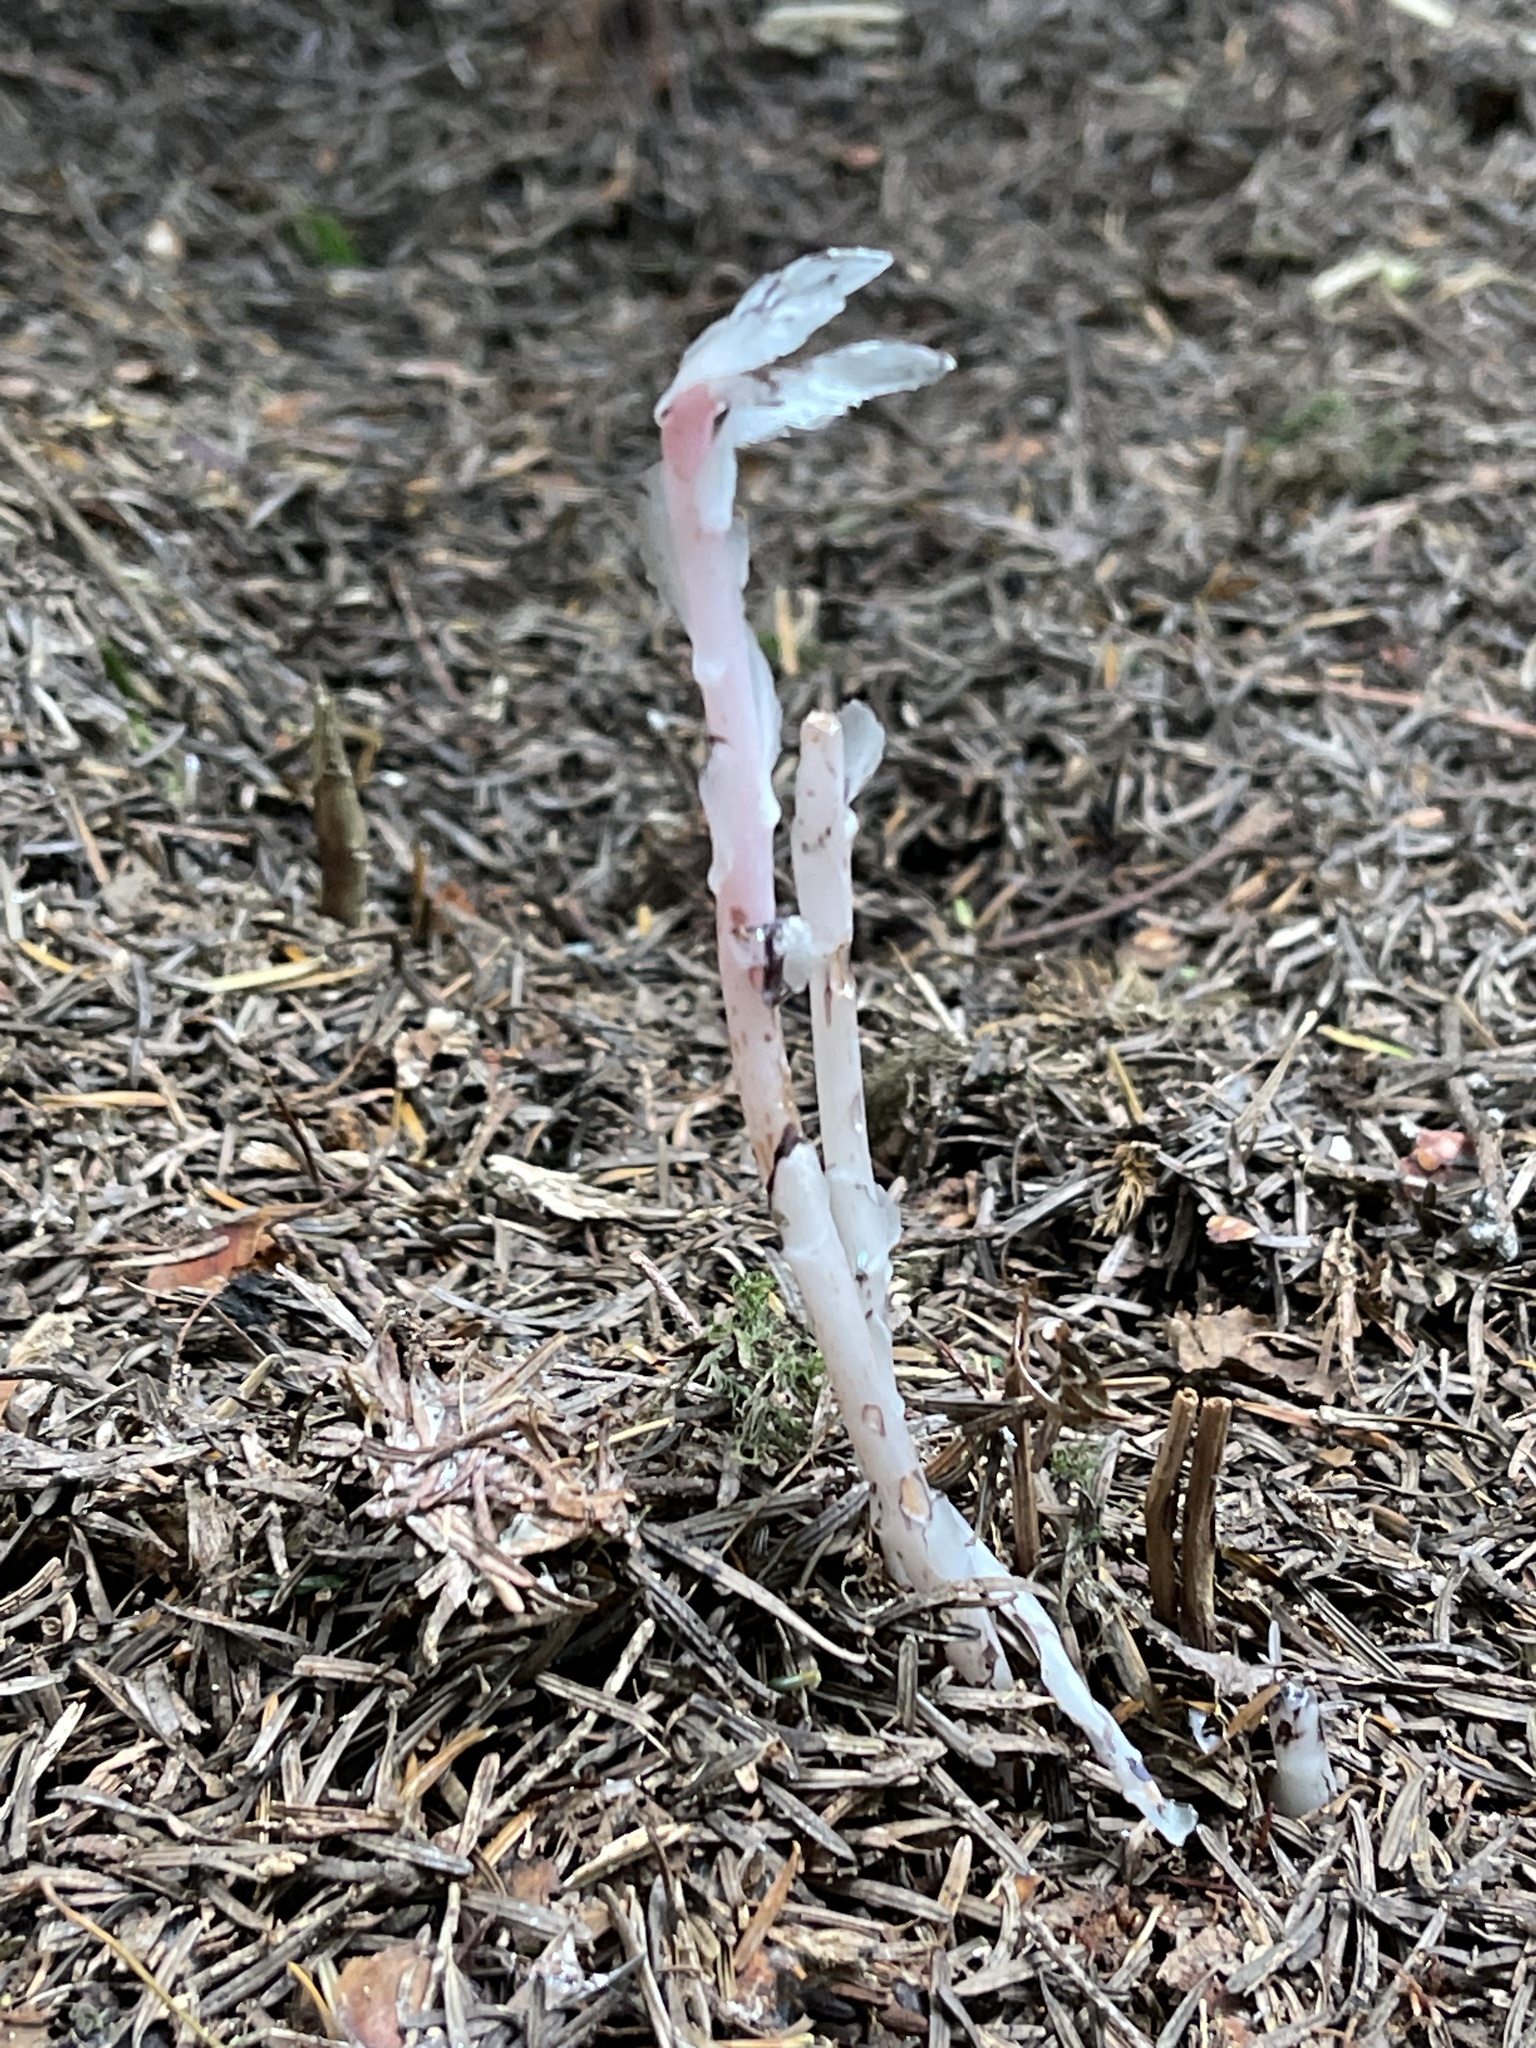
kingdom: Plantae
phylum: Tracheophyta
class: Magnoliopsida
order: Ericales
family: Ericaceae
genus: Monotropa
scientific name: Monotropa uniflora
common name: Convulsion root
